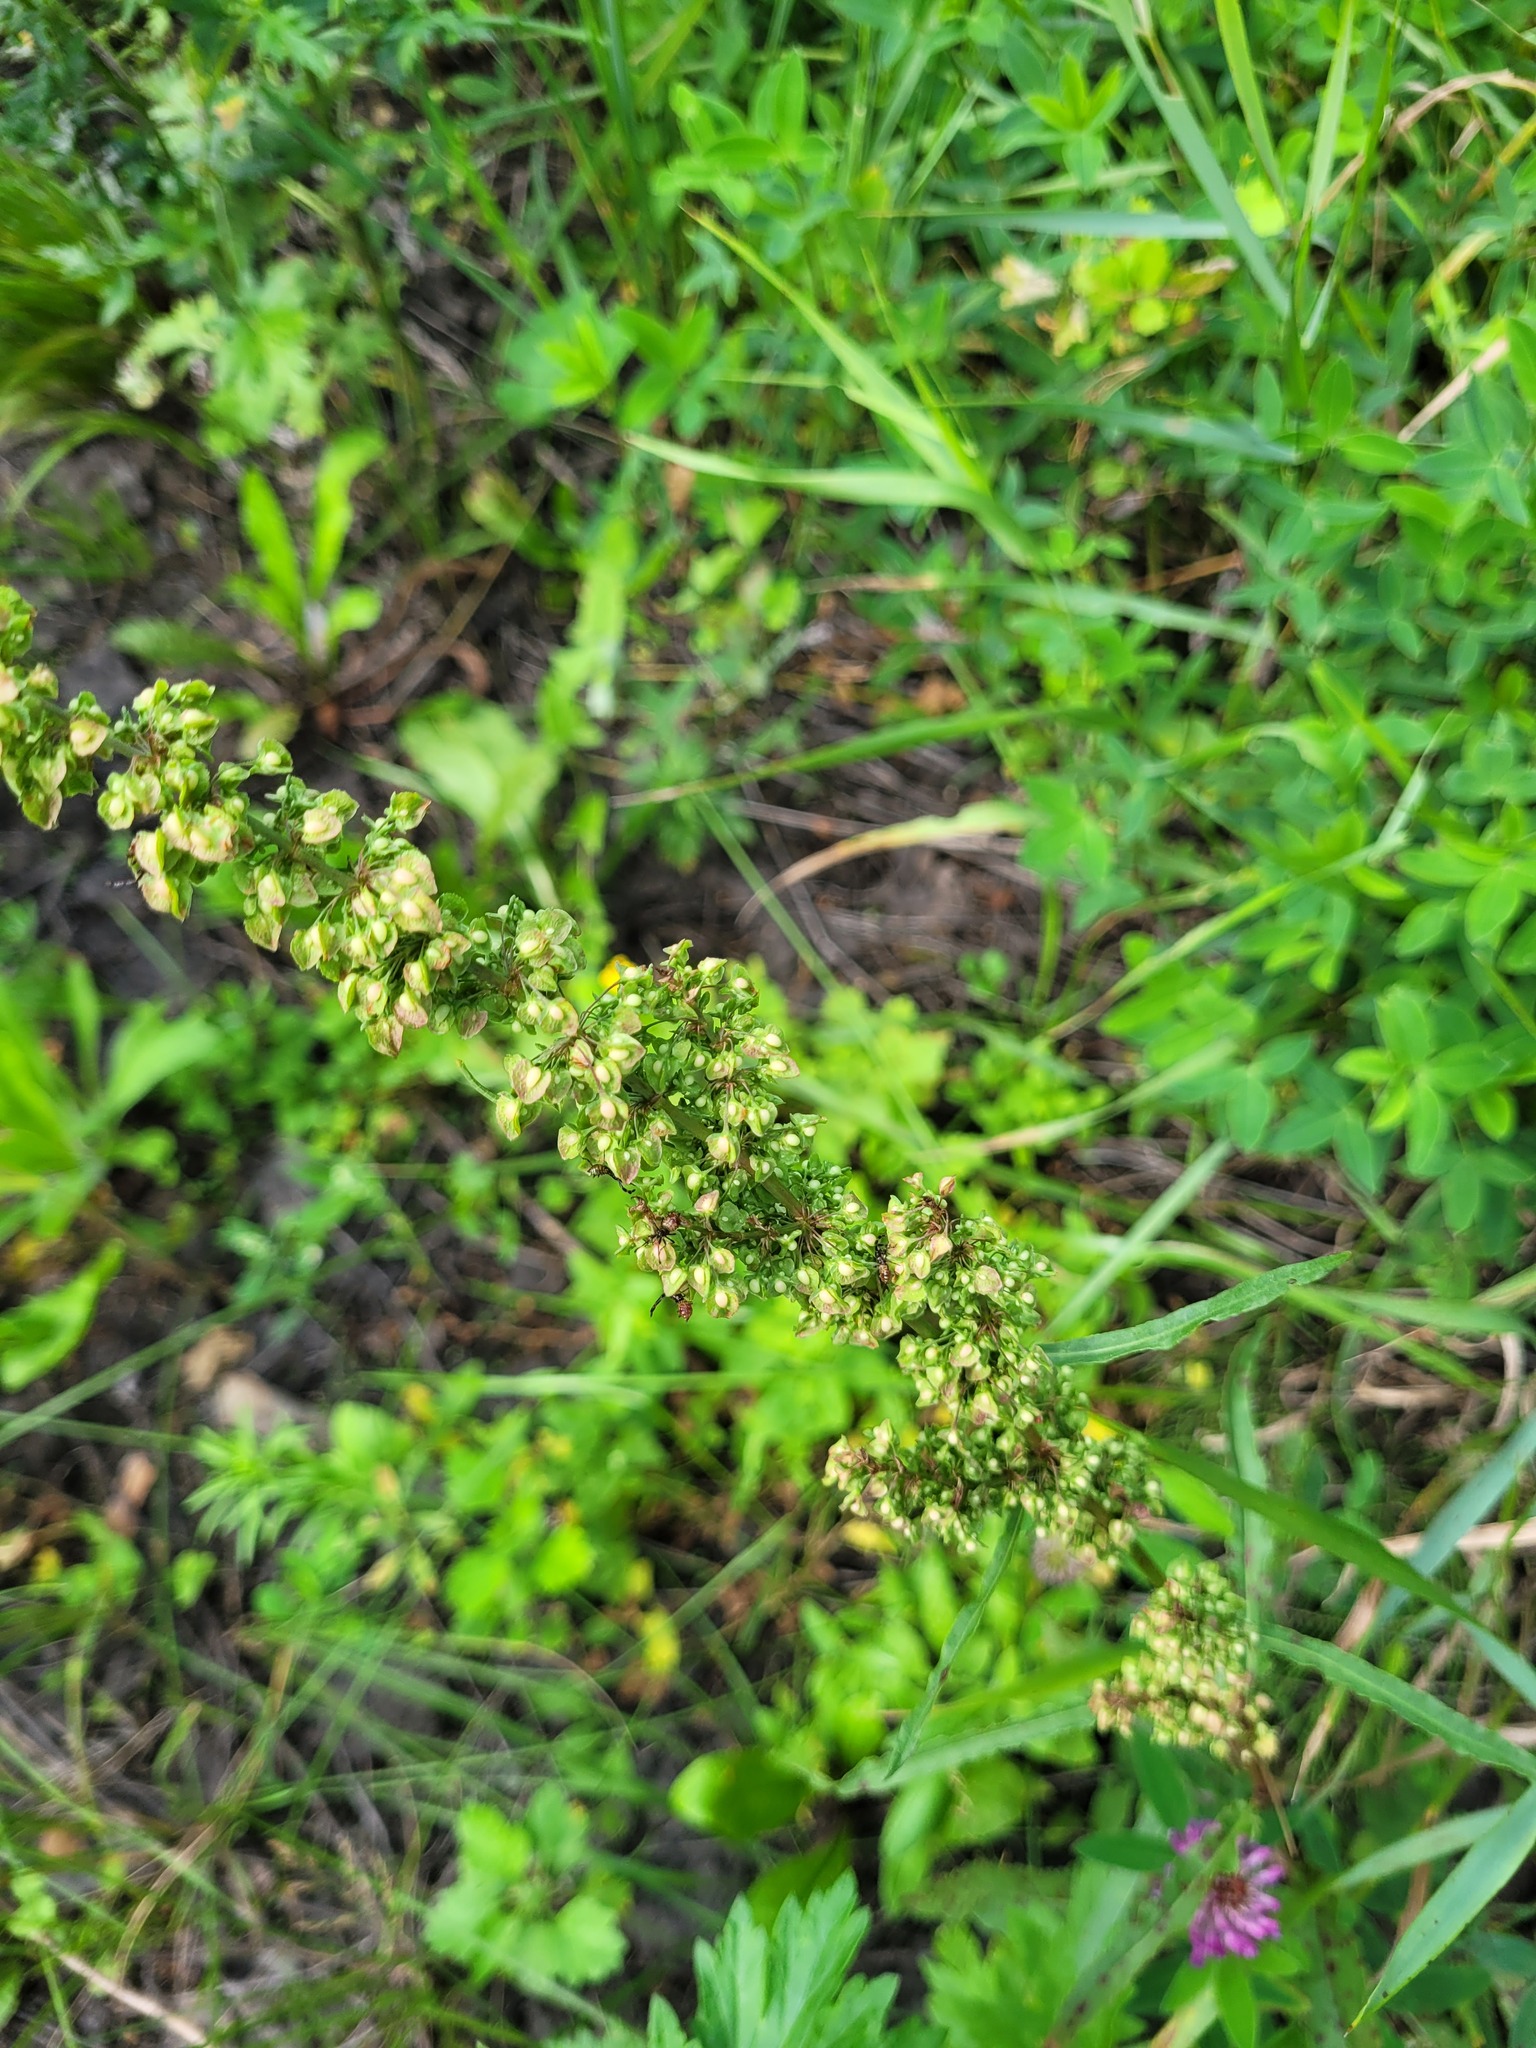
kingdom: Plantae
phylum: Tracheophyta
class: Magnoliopsida
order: Caryophyllales
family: Polygonaceae
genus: Rumex
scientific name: Rumex crispus
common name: Curled dock
